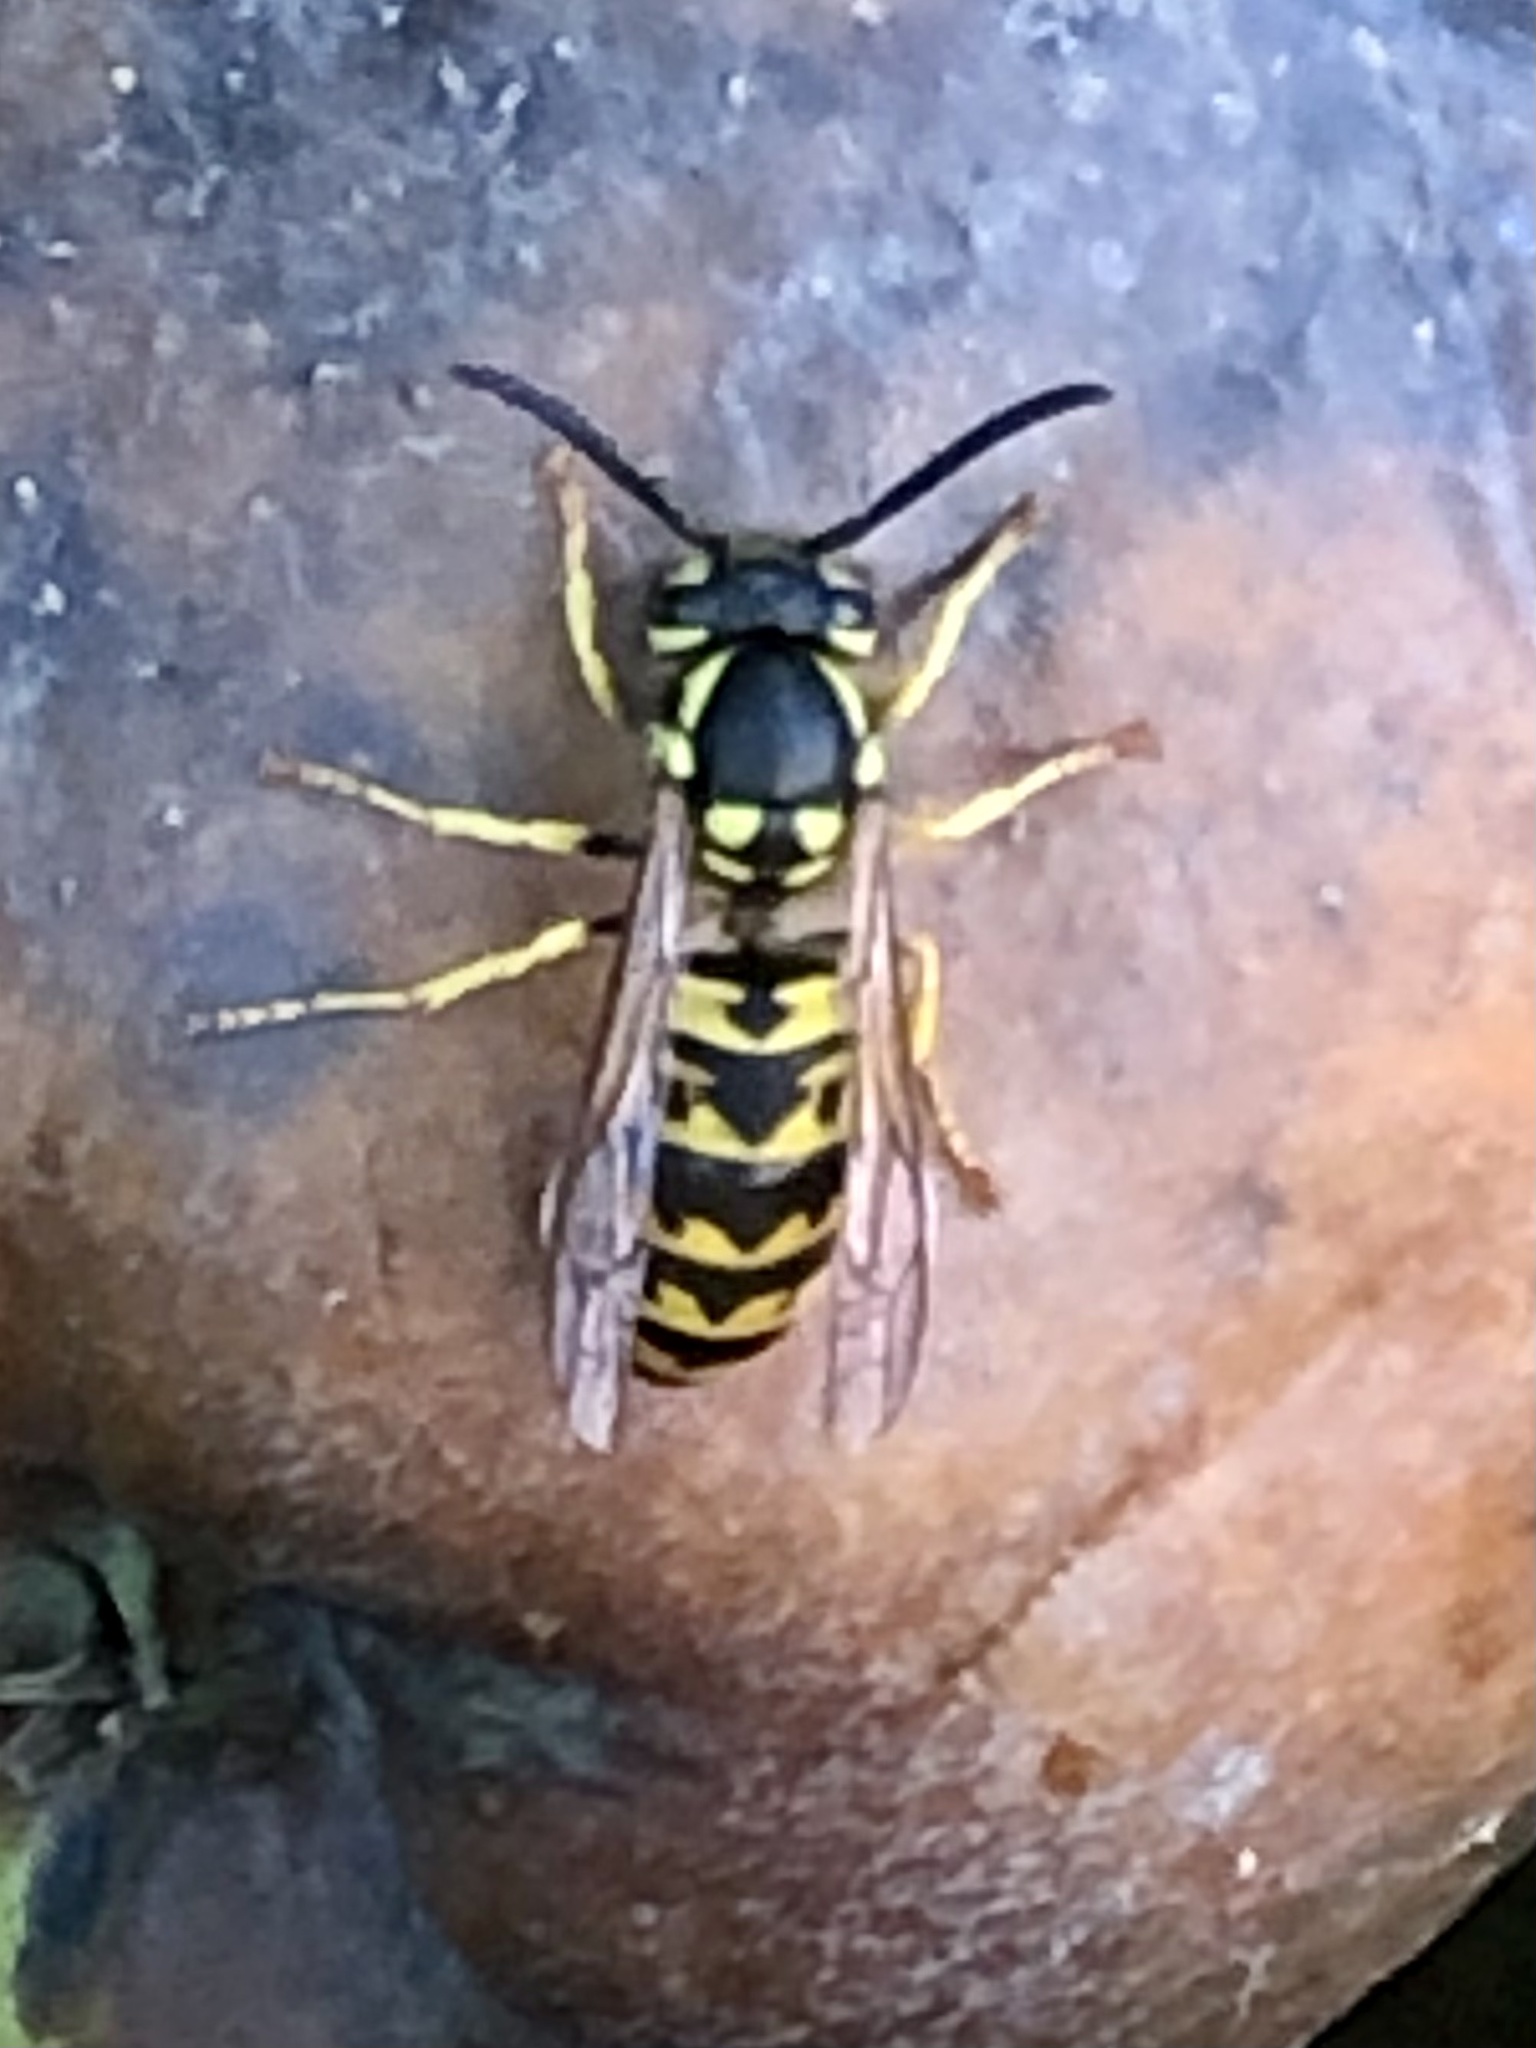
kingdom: Animalia
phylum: Arthropoda
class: Insecta
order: Hymenoptera
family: Vespidae
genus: Vespula
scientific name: Vespula germanica
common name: German wasp
